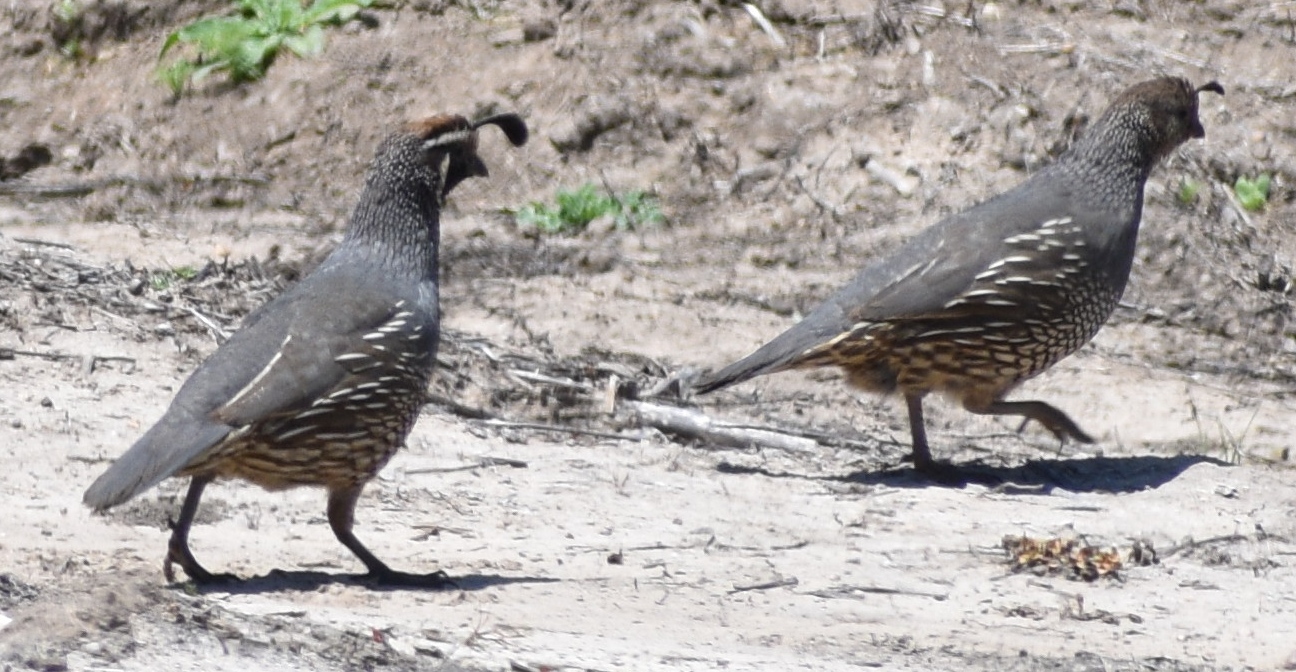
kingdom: Animalia
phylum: Chordata
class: Aves
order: Galliformes
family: Odontophoridae
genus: Callipepla
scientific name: Callipepla californica
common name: California quail
